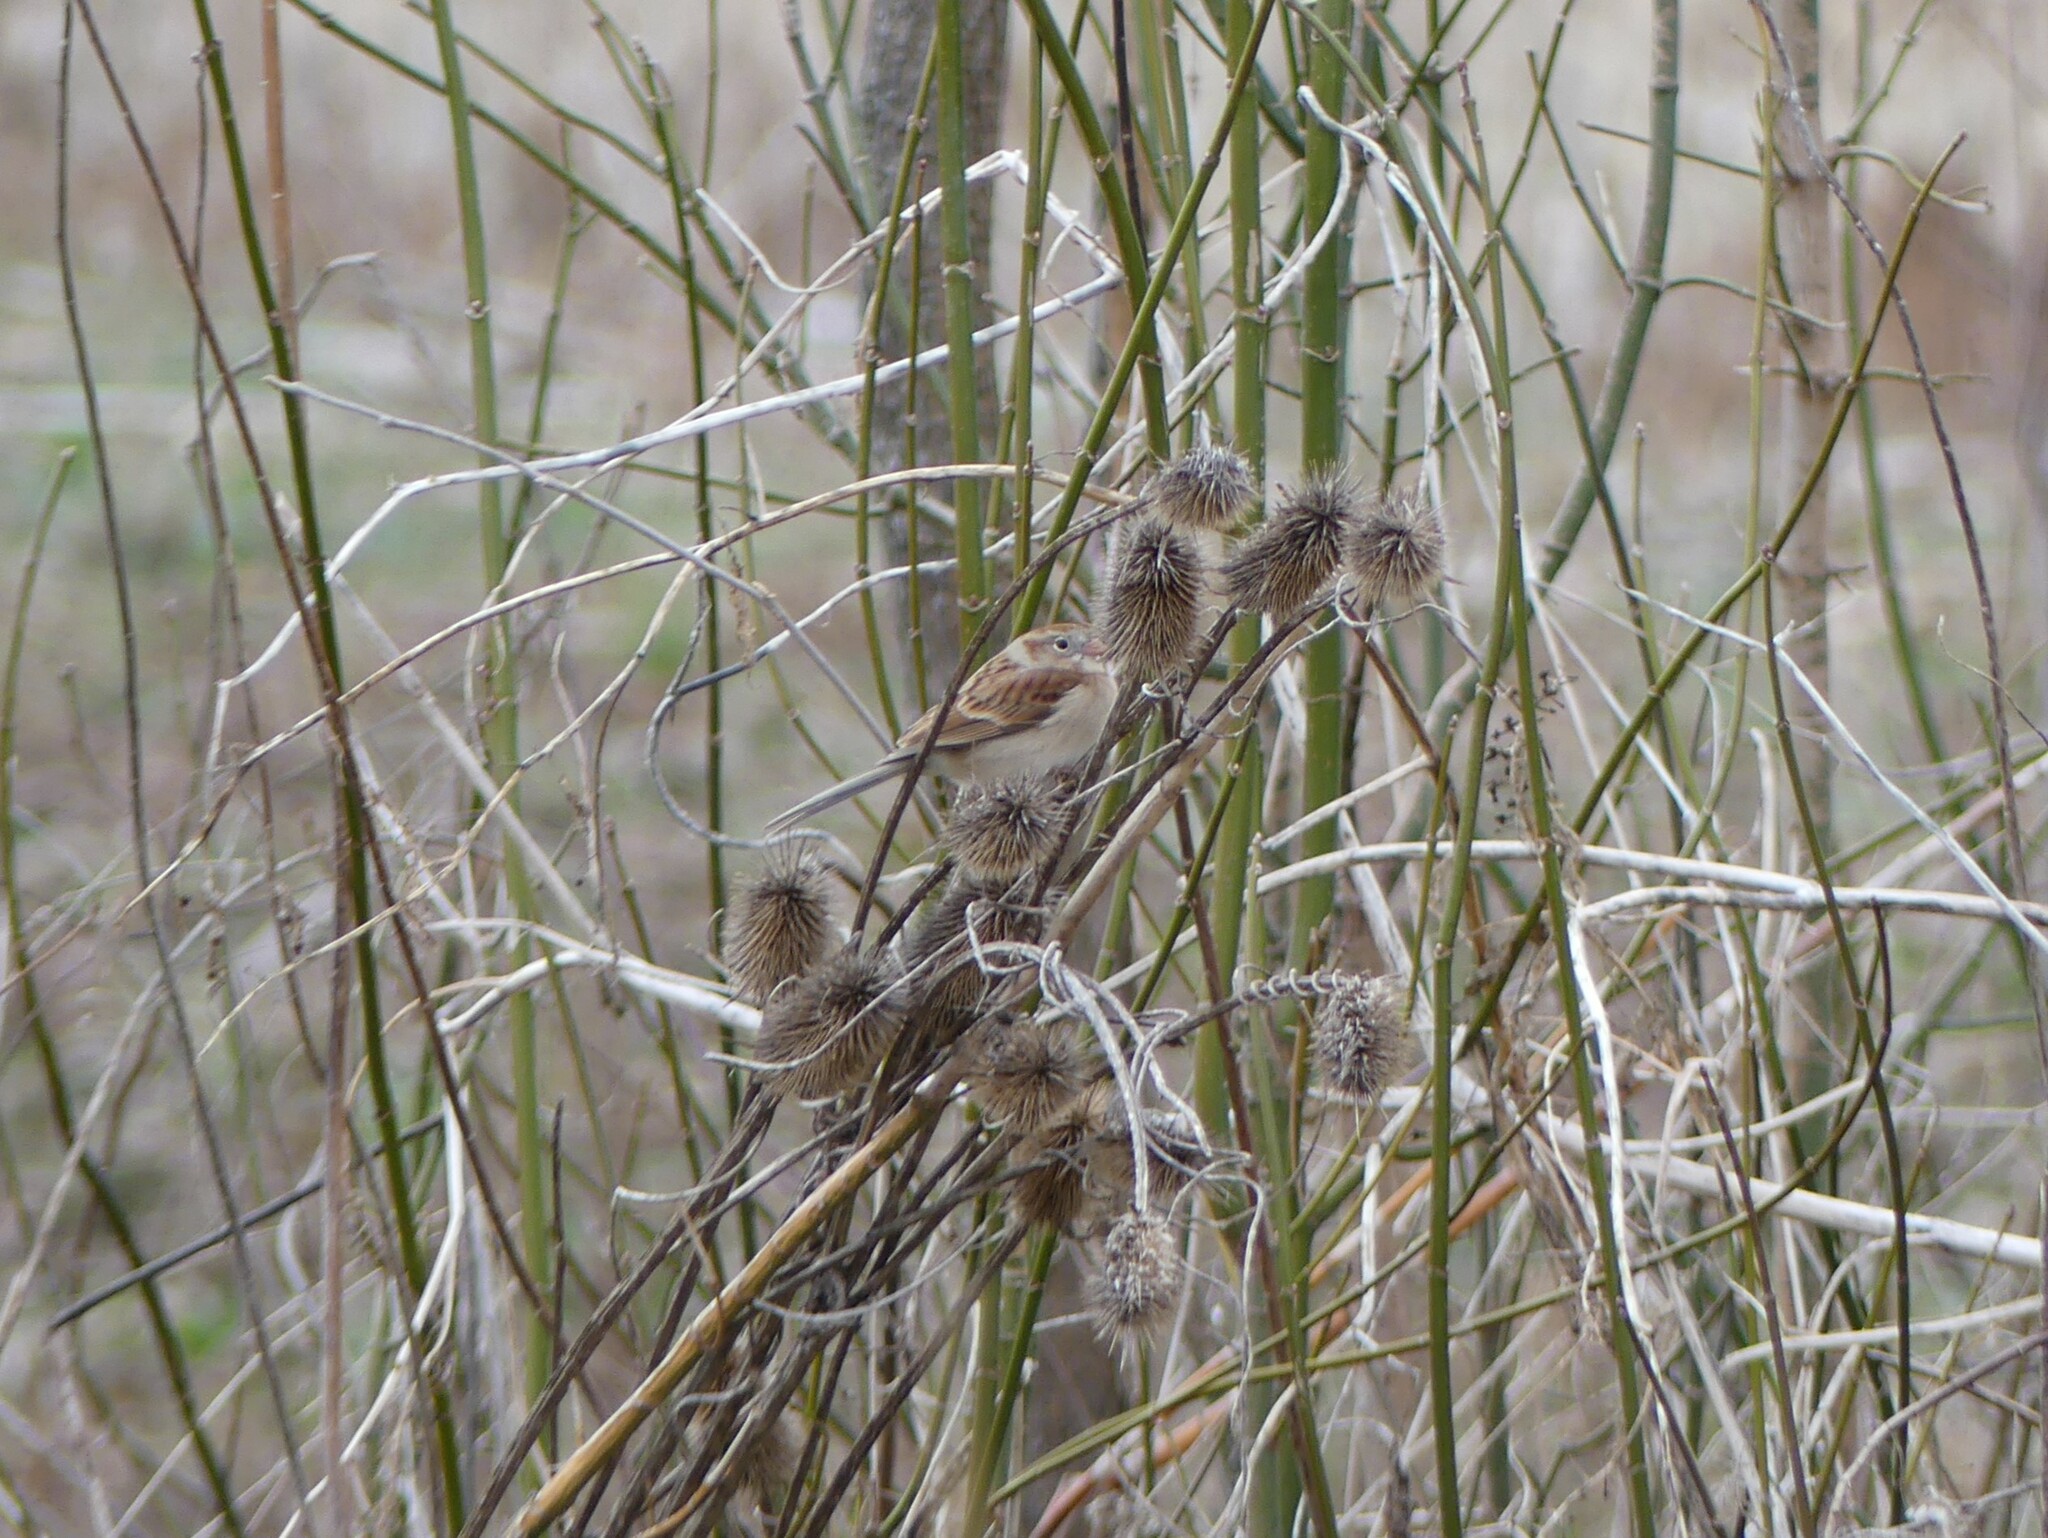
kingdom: Animalia
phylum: Chordata
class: Aves
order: Passeriformes
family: Passerellidae
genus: Spizella
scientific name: Spizella pusilla
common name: Field sparrow
